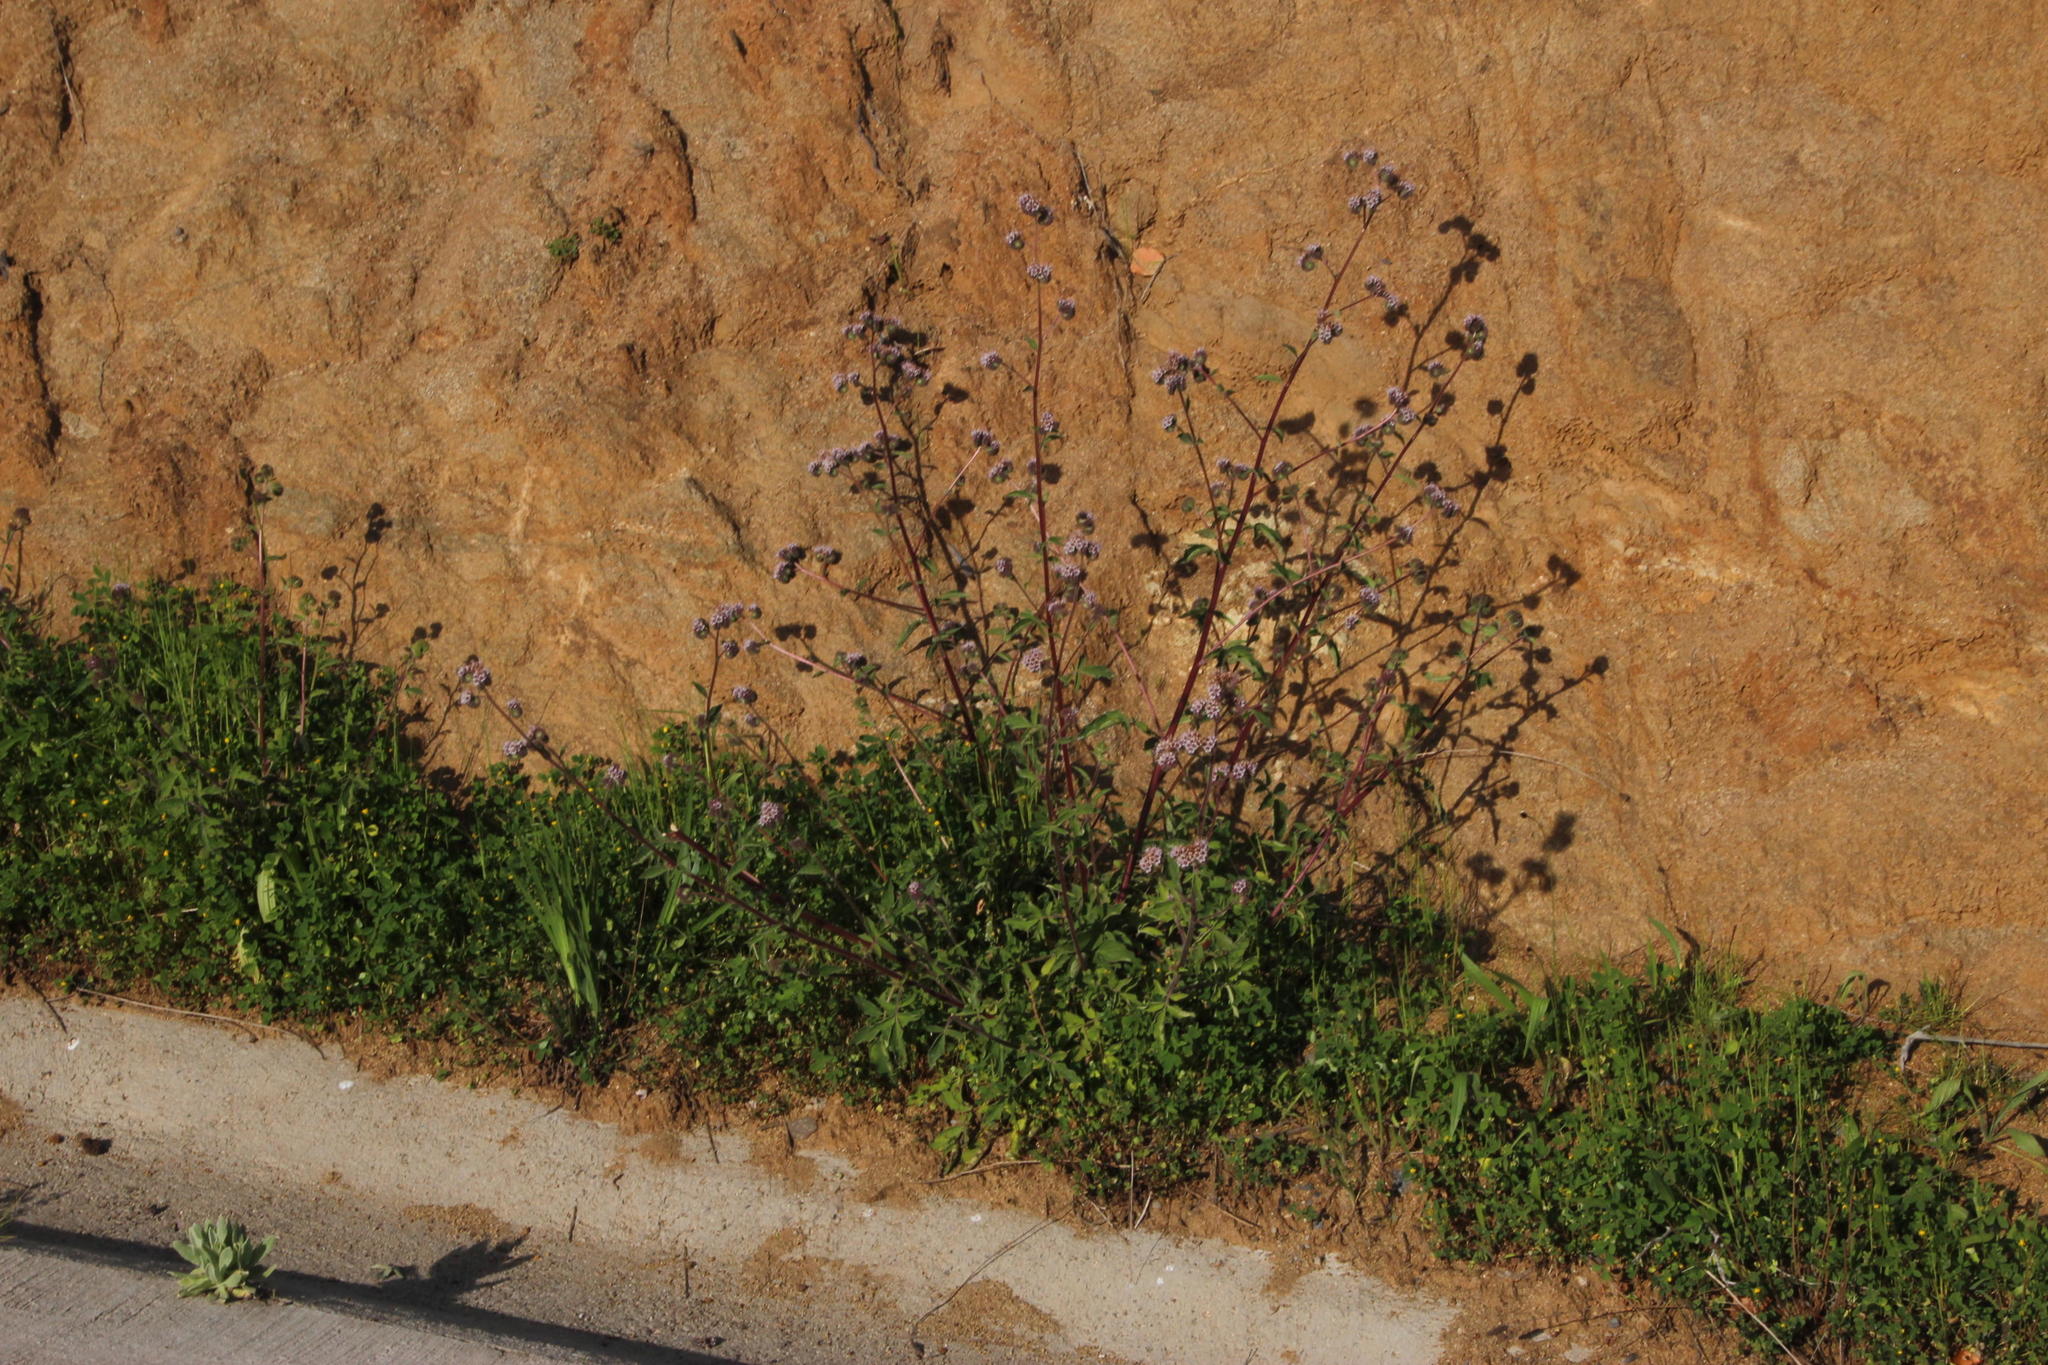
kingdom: Plantae
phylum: Tracheophyta
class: Magnoliopsida
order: Boraginales
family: Hydrophyllaceae
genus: Phacelia
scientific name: Phacelia secunda
